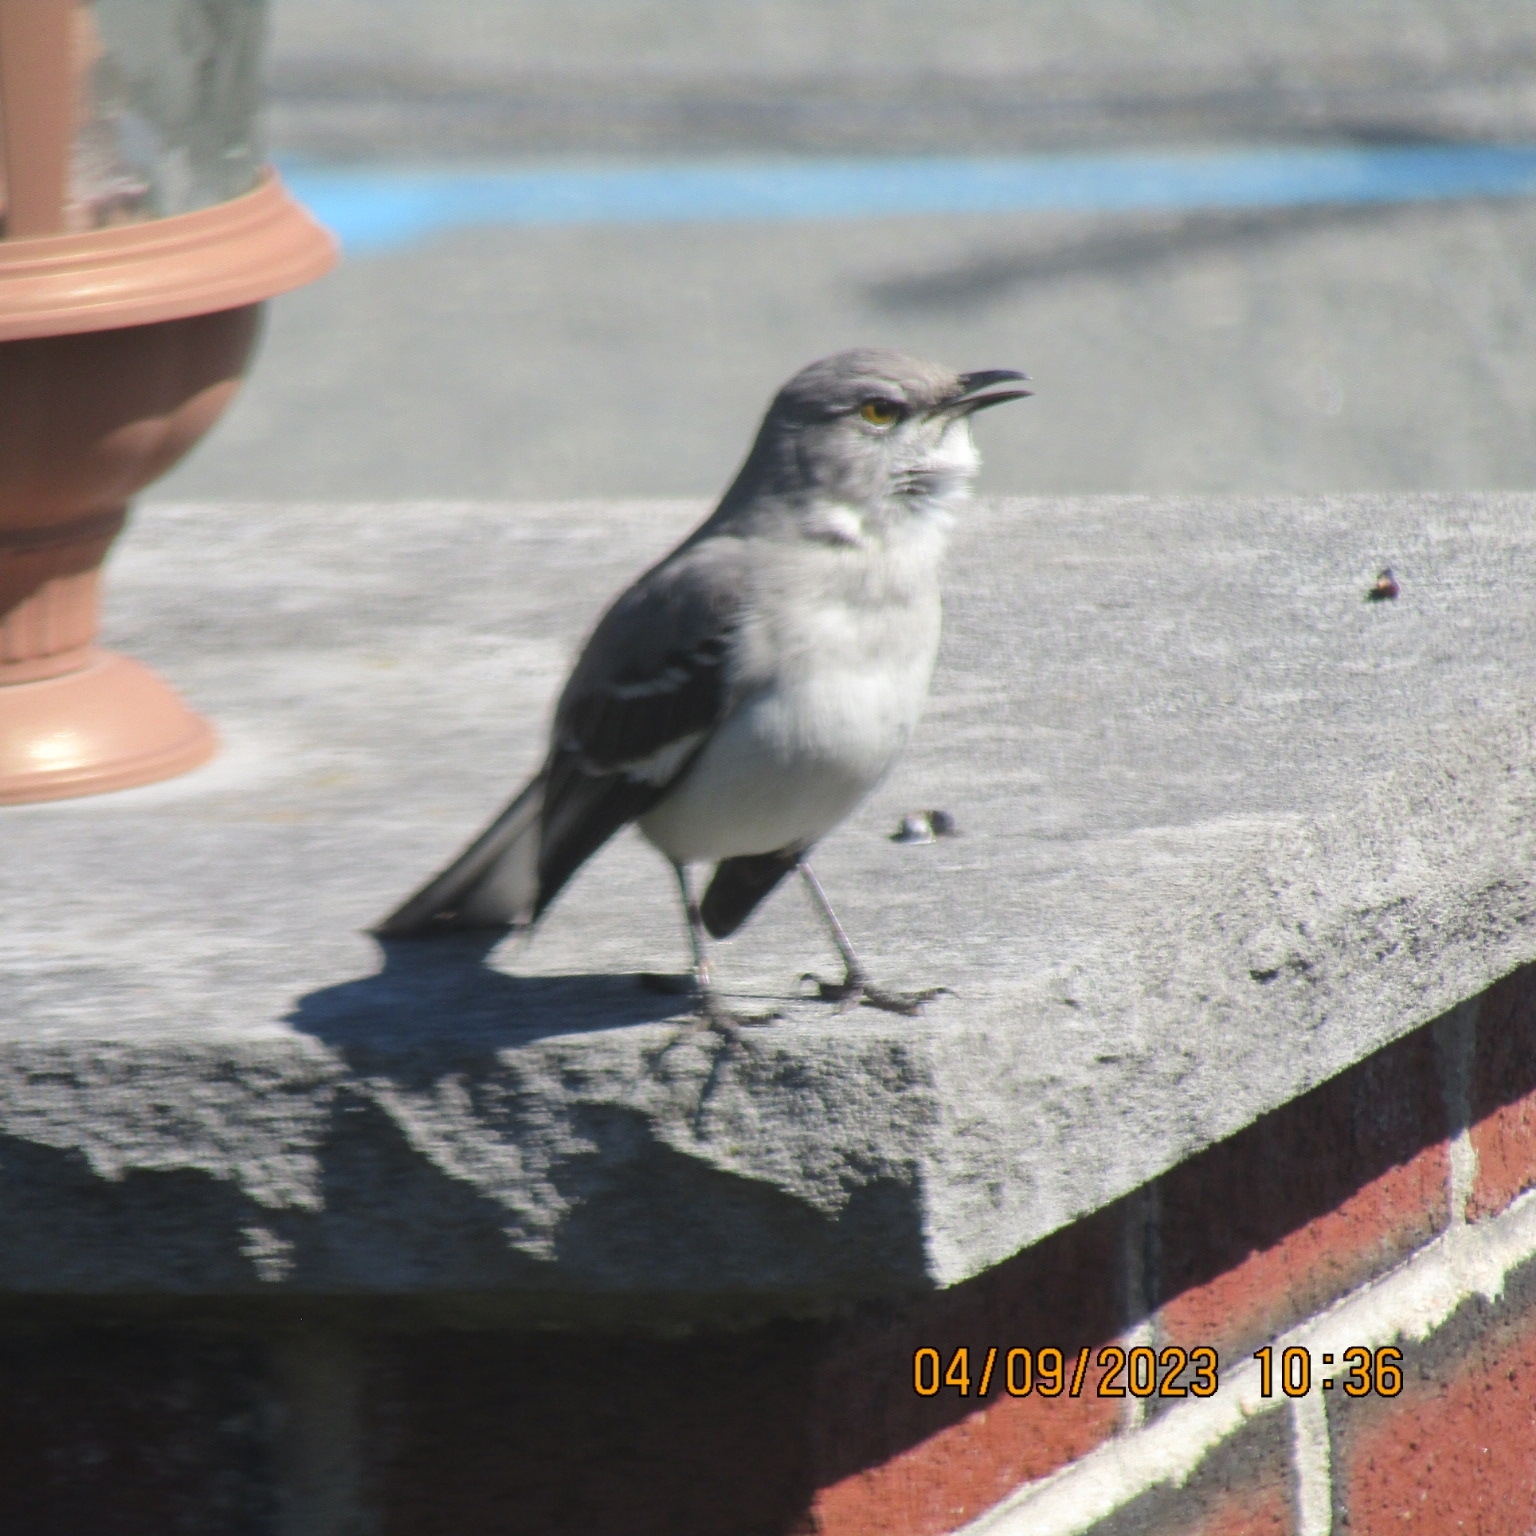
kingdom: Animalia
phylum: Chordata
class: Aves
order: Passeriformes
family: Mimidae
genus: Mimus
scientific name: Mimus polyglottos
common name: Northern mockingbird
